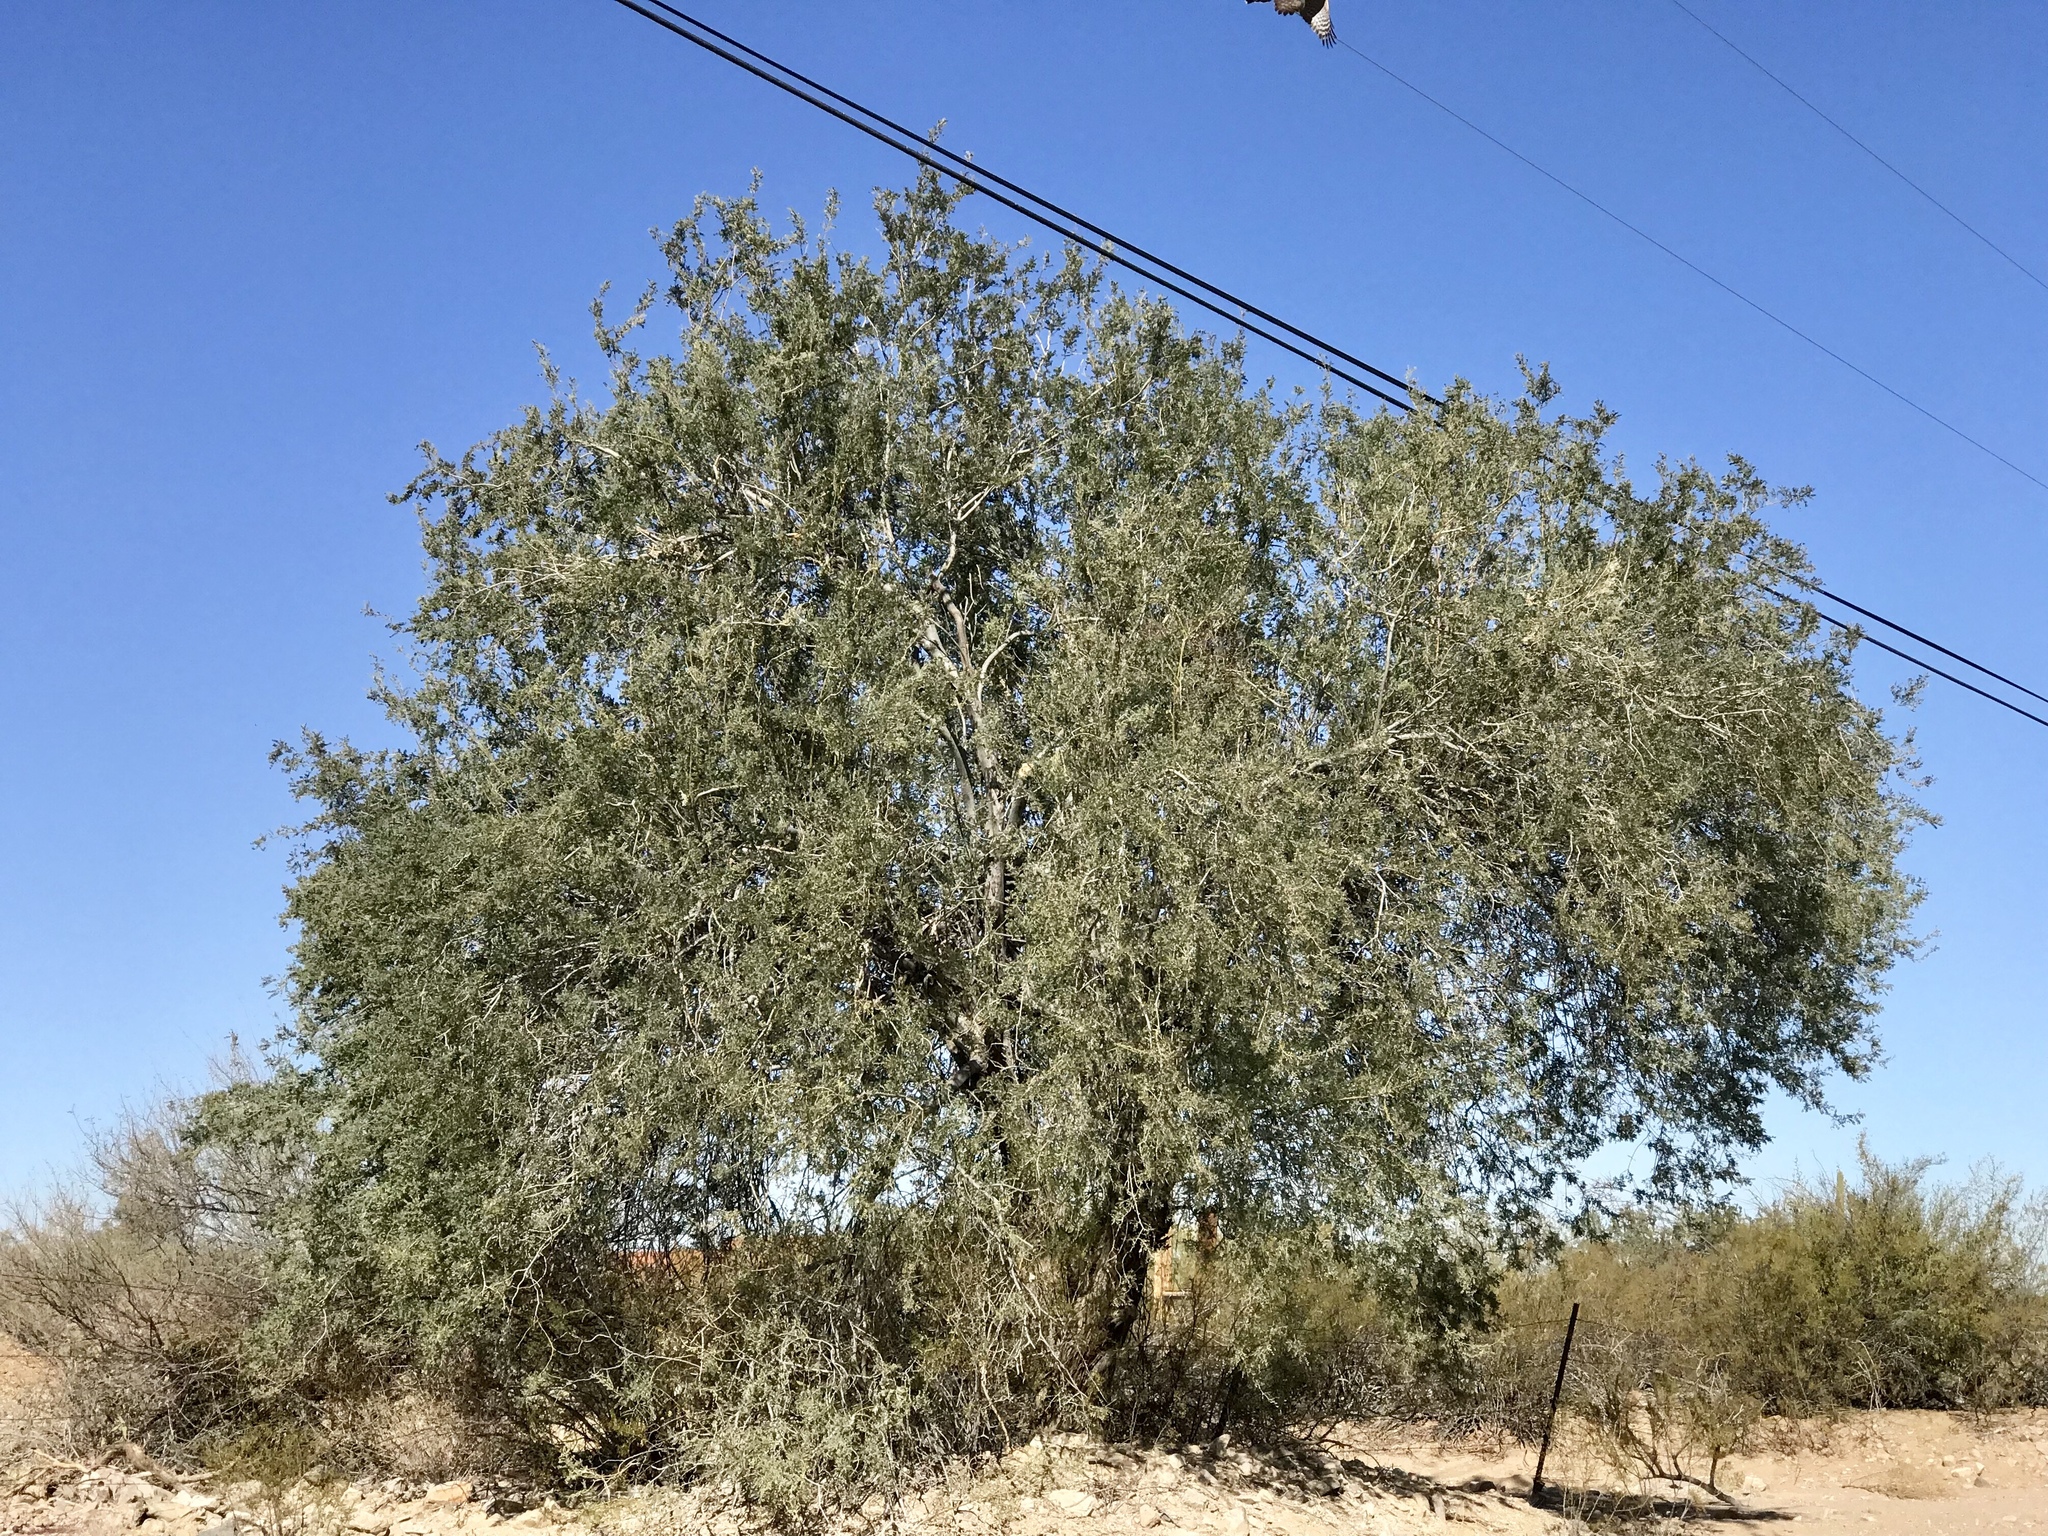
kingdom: Plantae
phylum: Tracheophyta
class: Magnoliopsida
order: Fabales
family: Fabaceae
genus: Olneya
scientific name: Olneya tesota
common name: Desert ironwood
